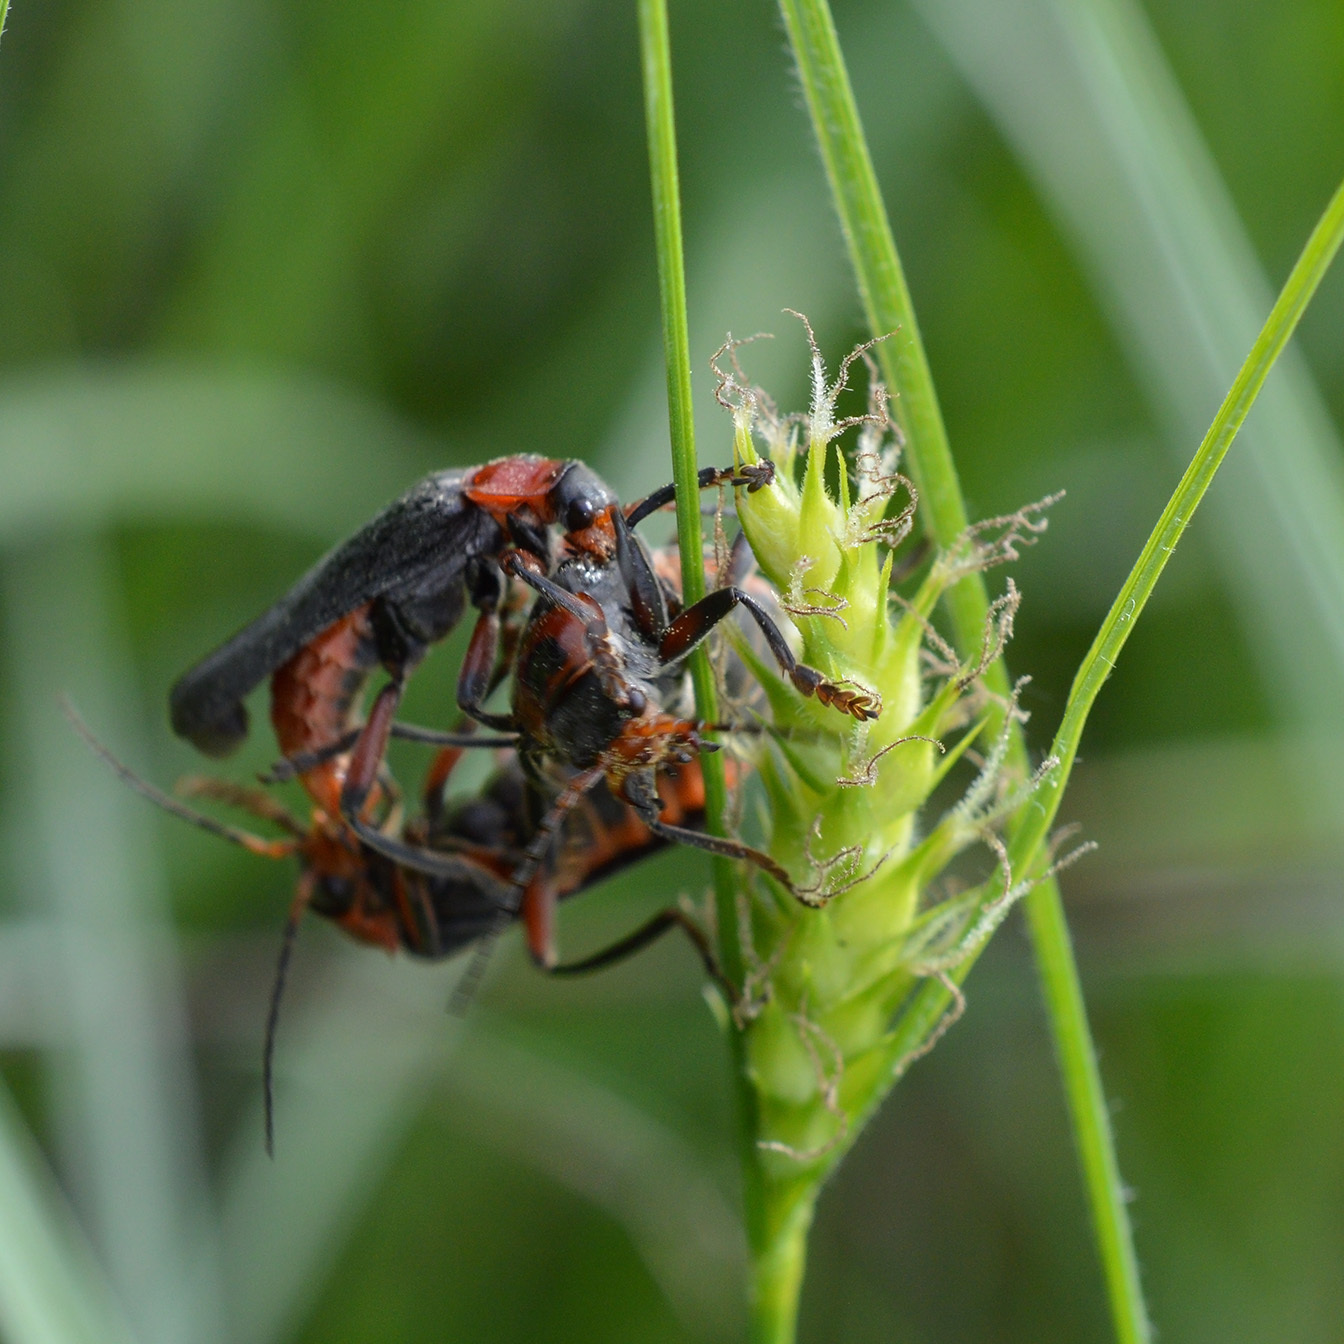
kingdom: Animalia
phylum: Arthropoda
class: Insecta
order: Coleoptera
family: Cantharidae
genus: Cantharis
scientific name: Cantharis rustica
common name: Soldier beetle
